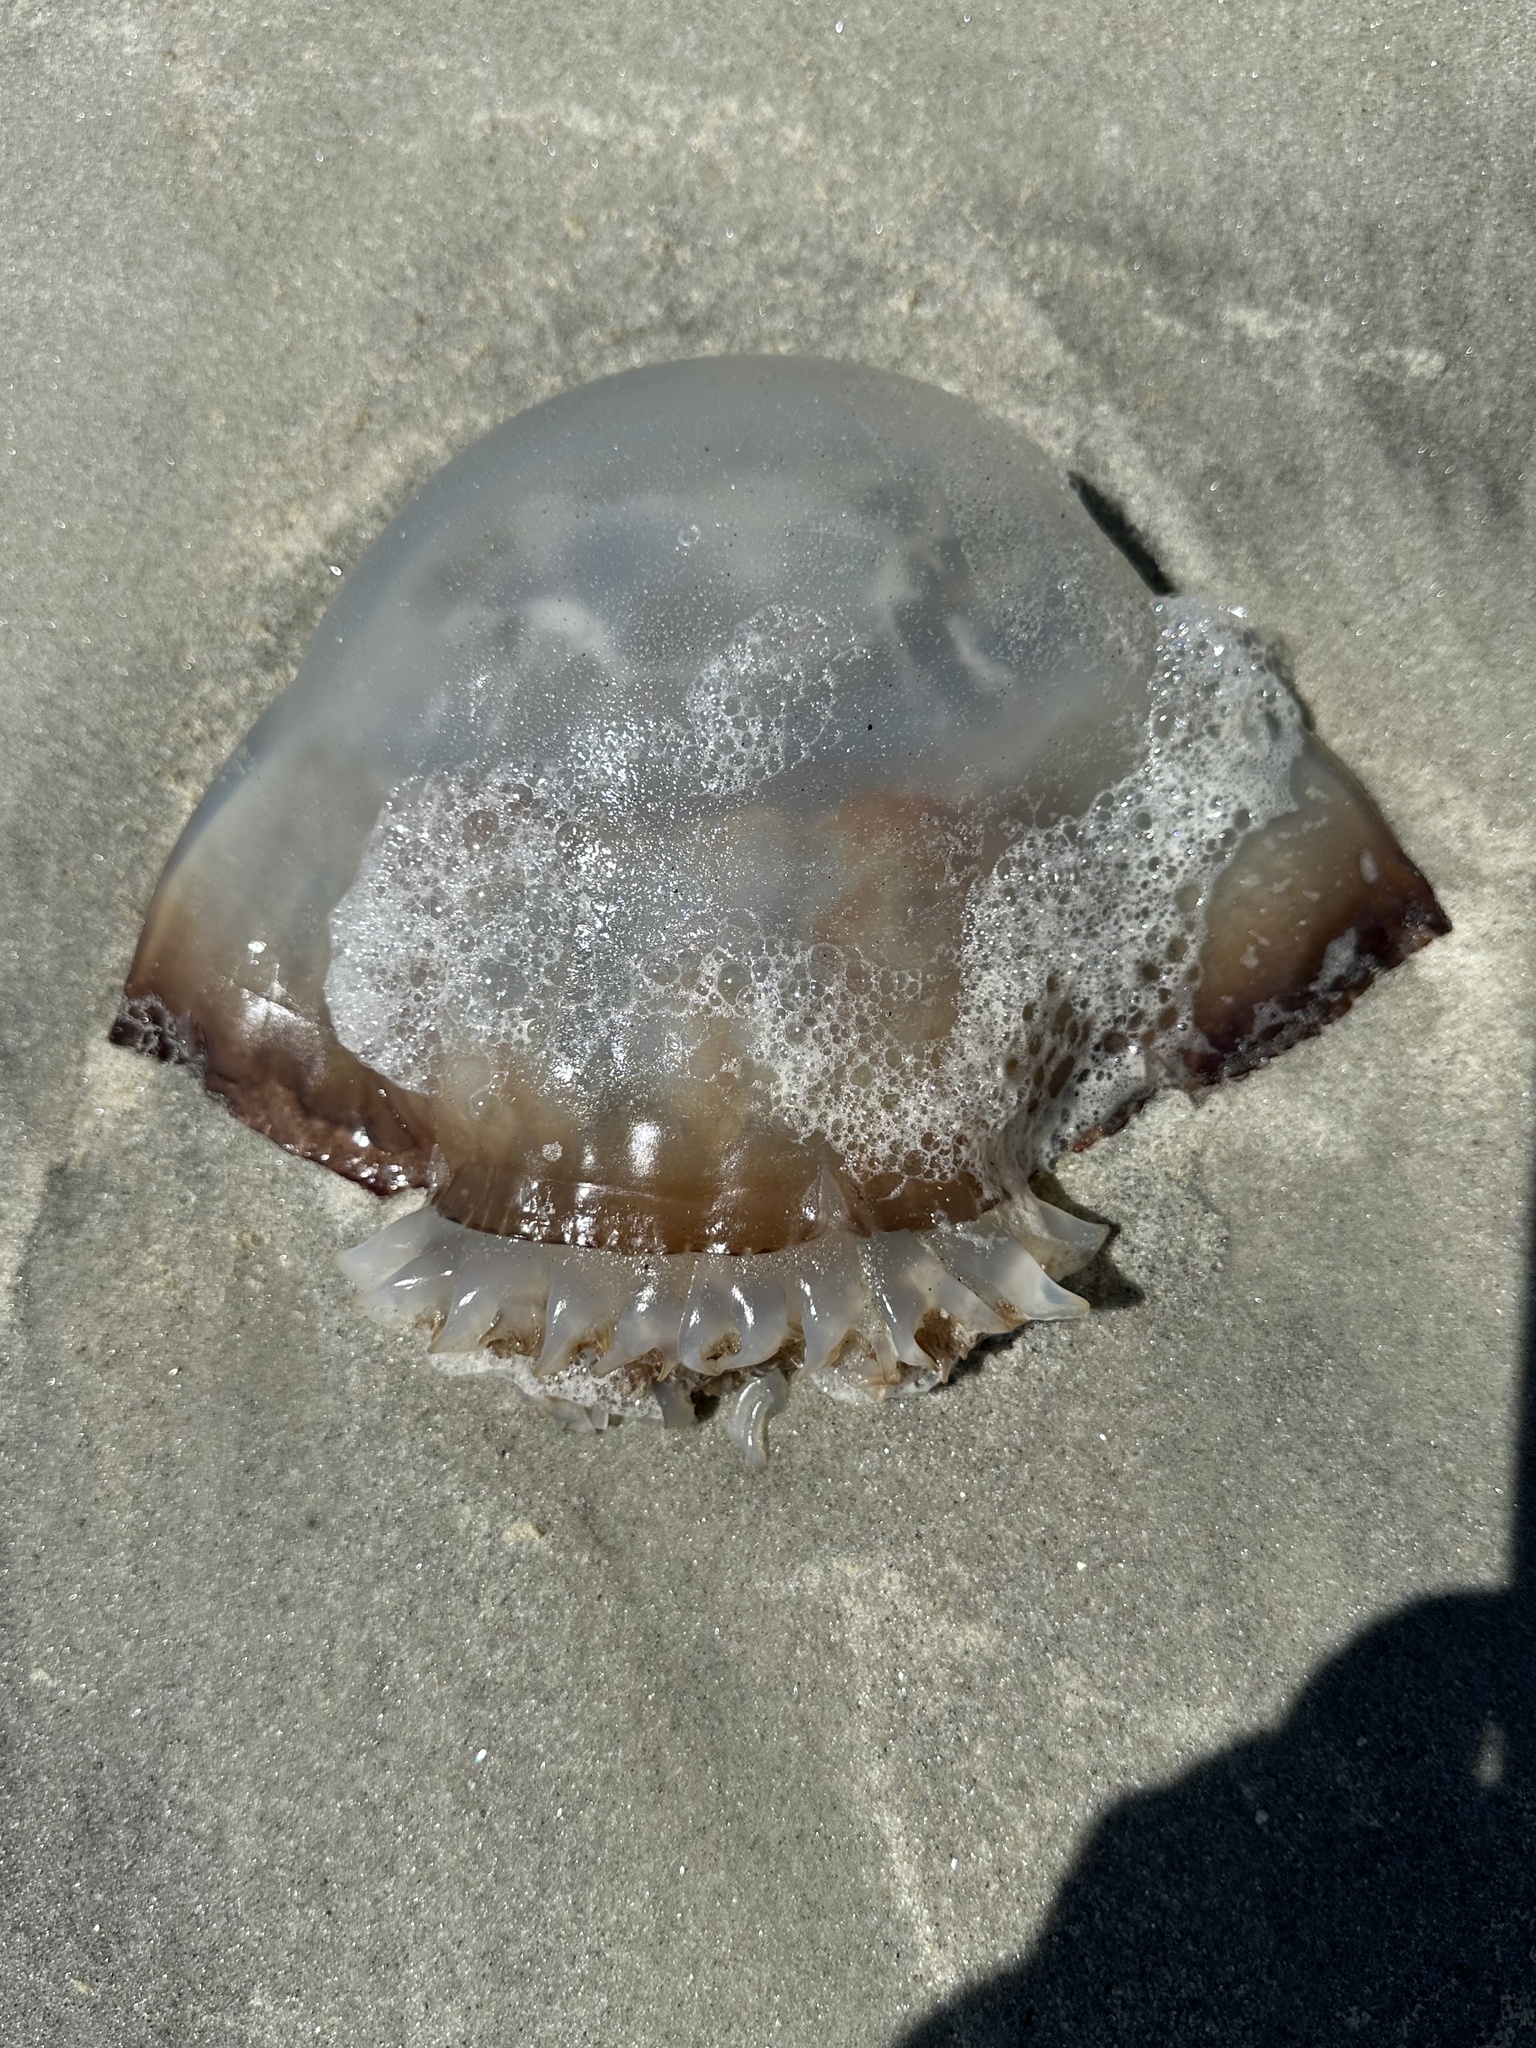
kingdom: Animalia
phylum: Cnidaria
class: Scyphozoa
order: Rhizostomeae
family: Stomolophidae
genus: Stomolophus
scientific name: Stomolophus meleagris
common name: Cabbagehead
